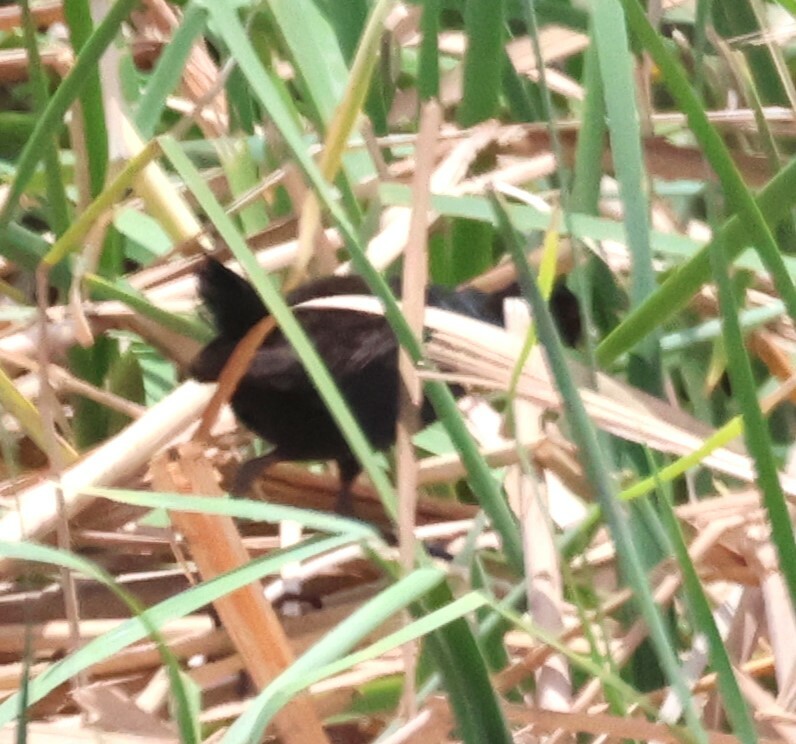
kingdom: Animalia
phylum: Chordata
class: Aves
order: Gruiformes
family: Rallidae
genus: Amaurornis
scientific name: Amaurornis flavirostra
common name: Black crake
